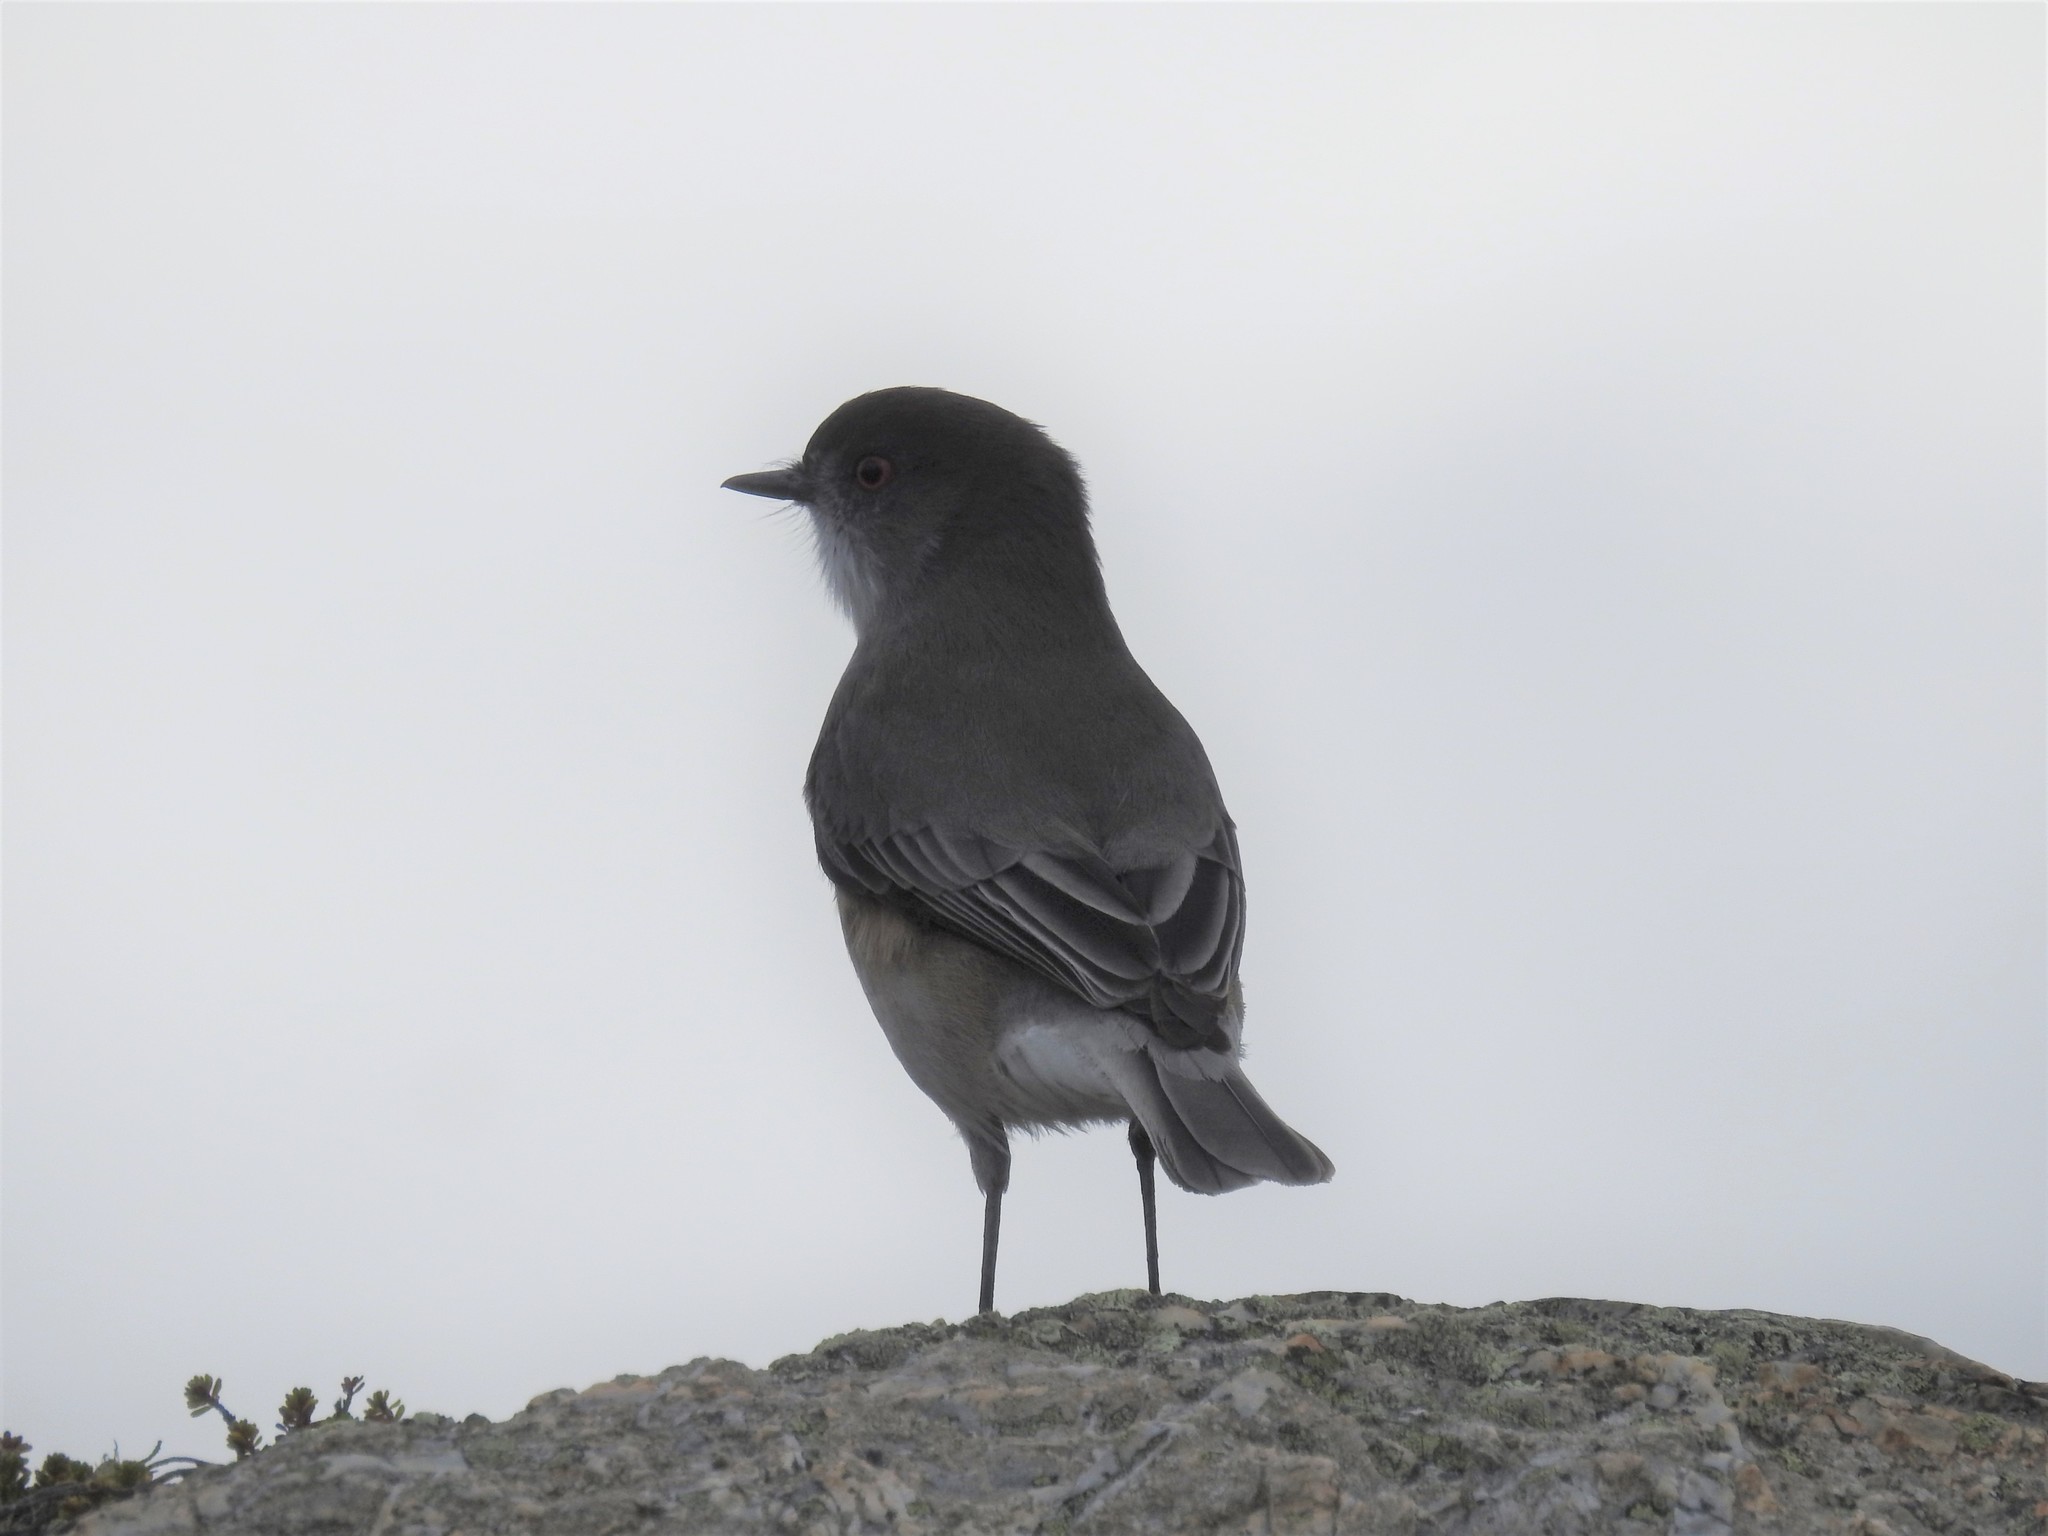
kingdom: Animalia
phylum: Chordata
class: Aves
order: Passeriformes
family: Tyrannidae
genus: Xolmis
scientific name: Xolmis pyrope
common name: Fire-eyed diucon
